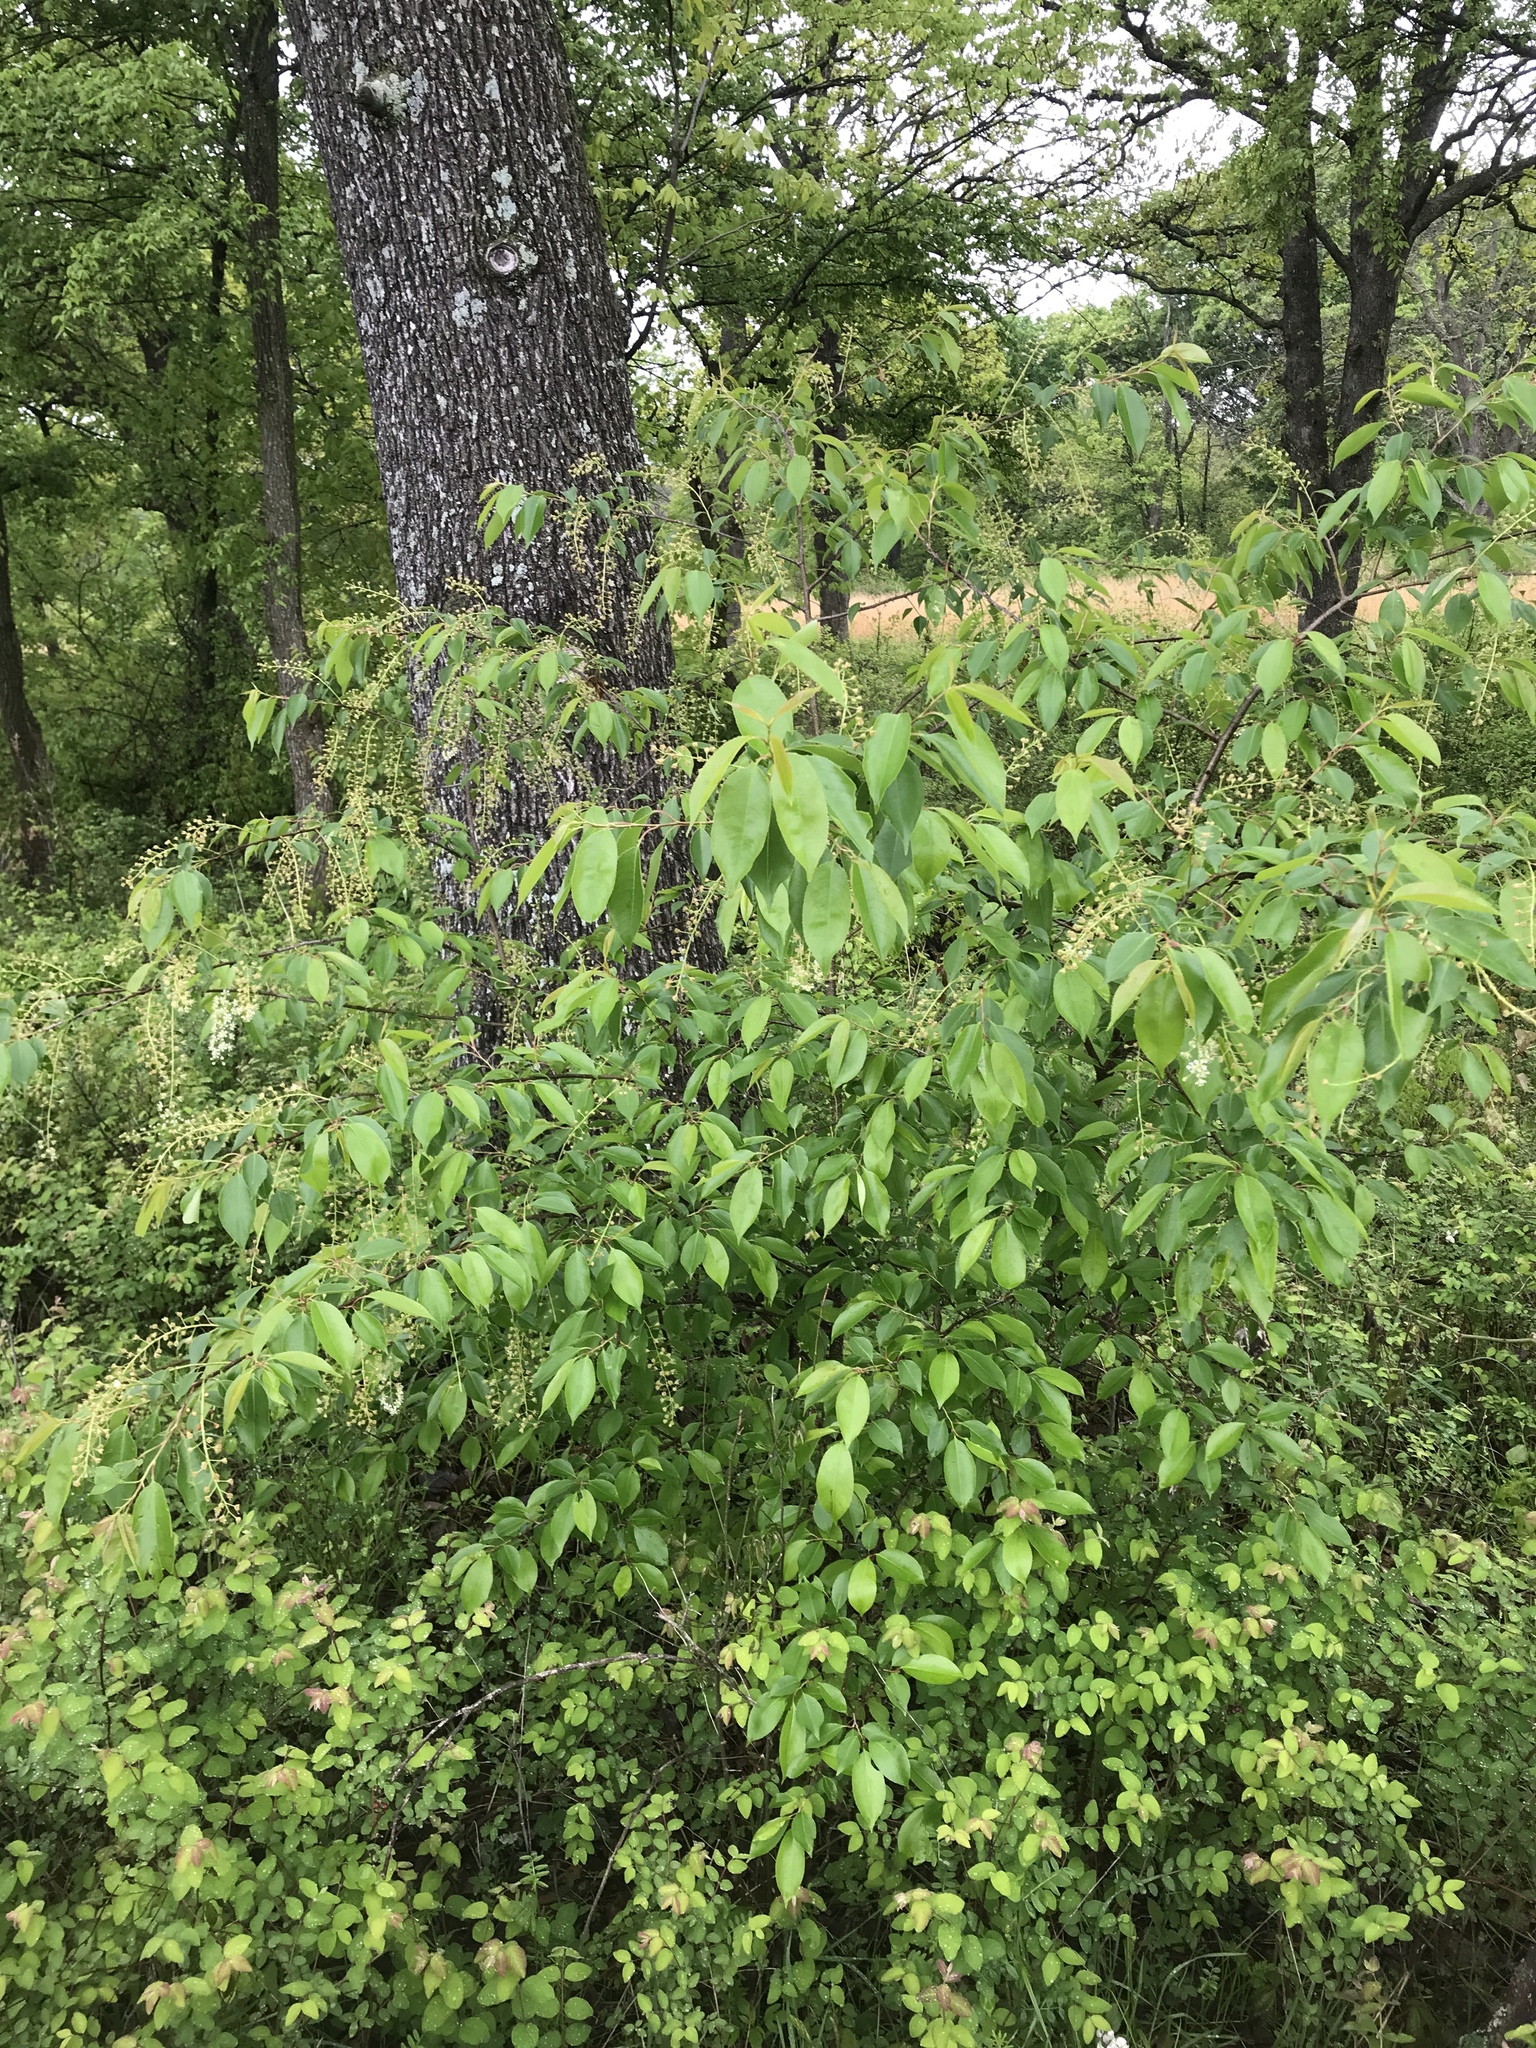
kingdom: Plantae
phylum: Tracheophyta
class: Magnoliopsida
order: Rosales
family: Rosaceae
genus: Prunus
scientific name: Prunus serotina
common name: Black cherry
